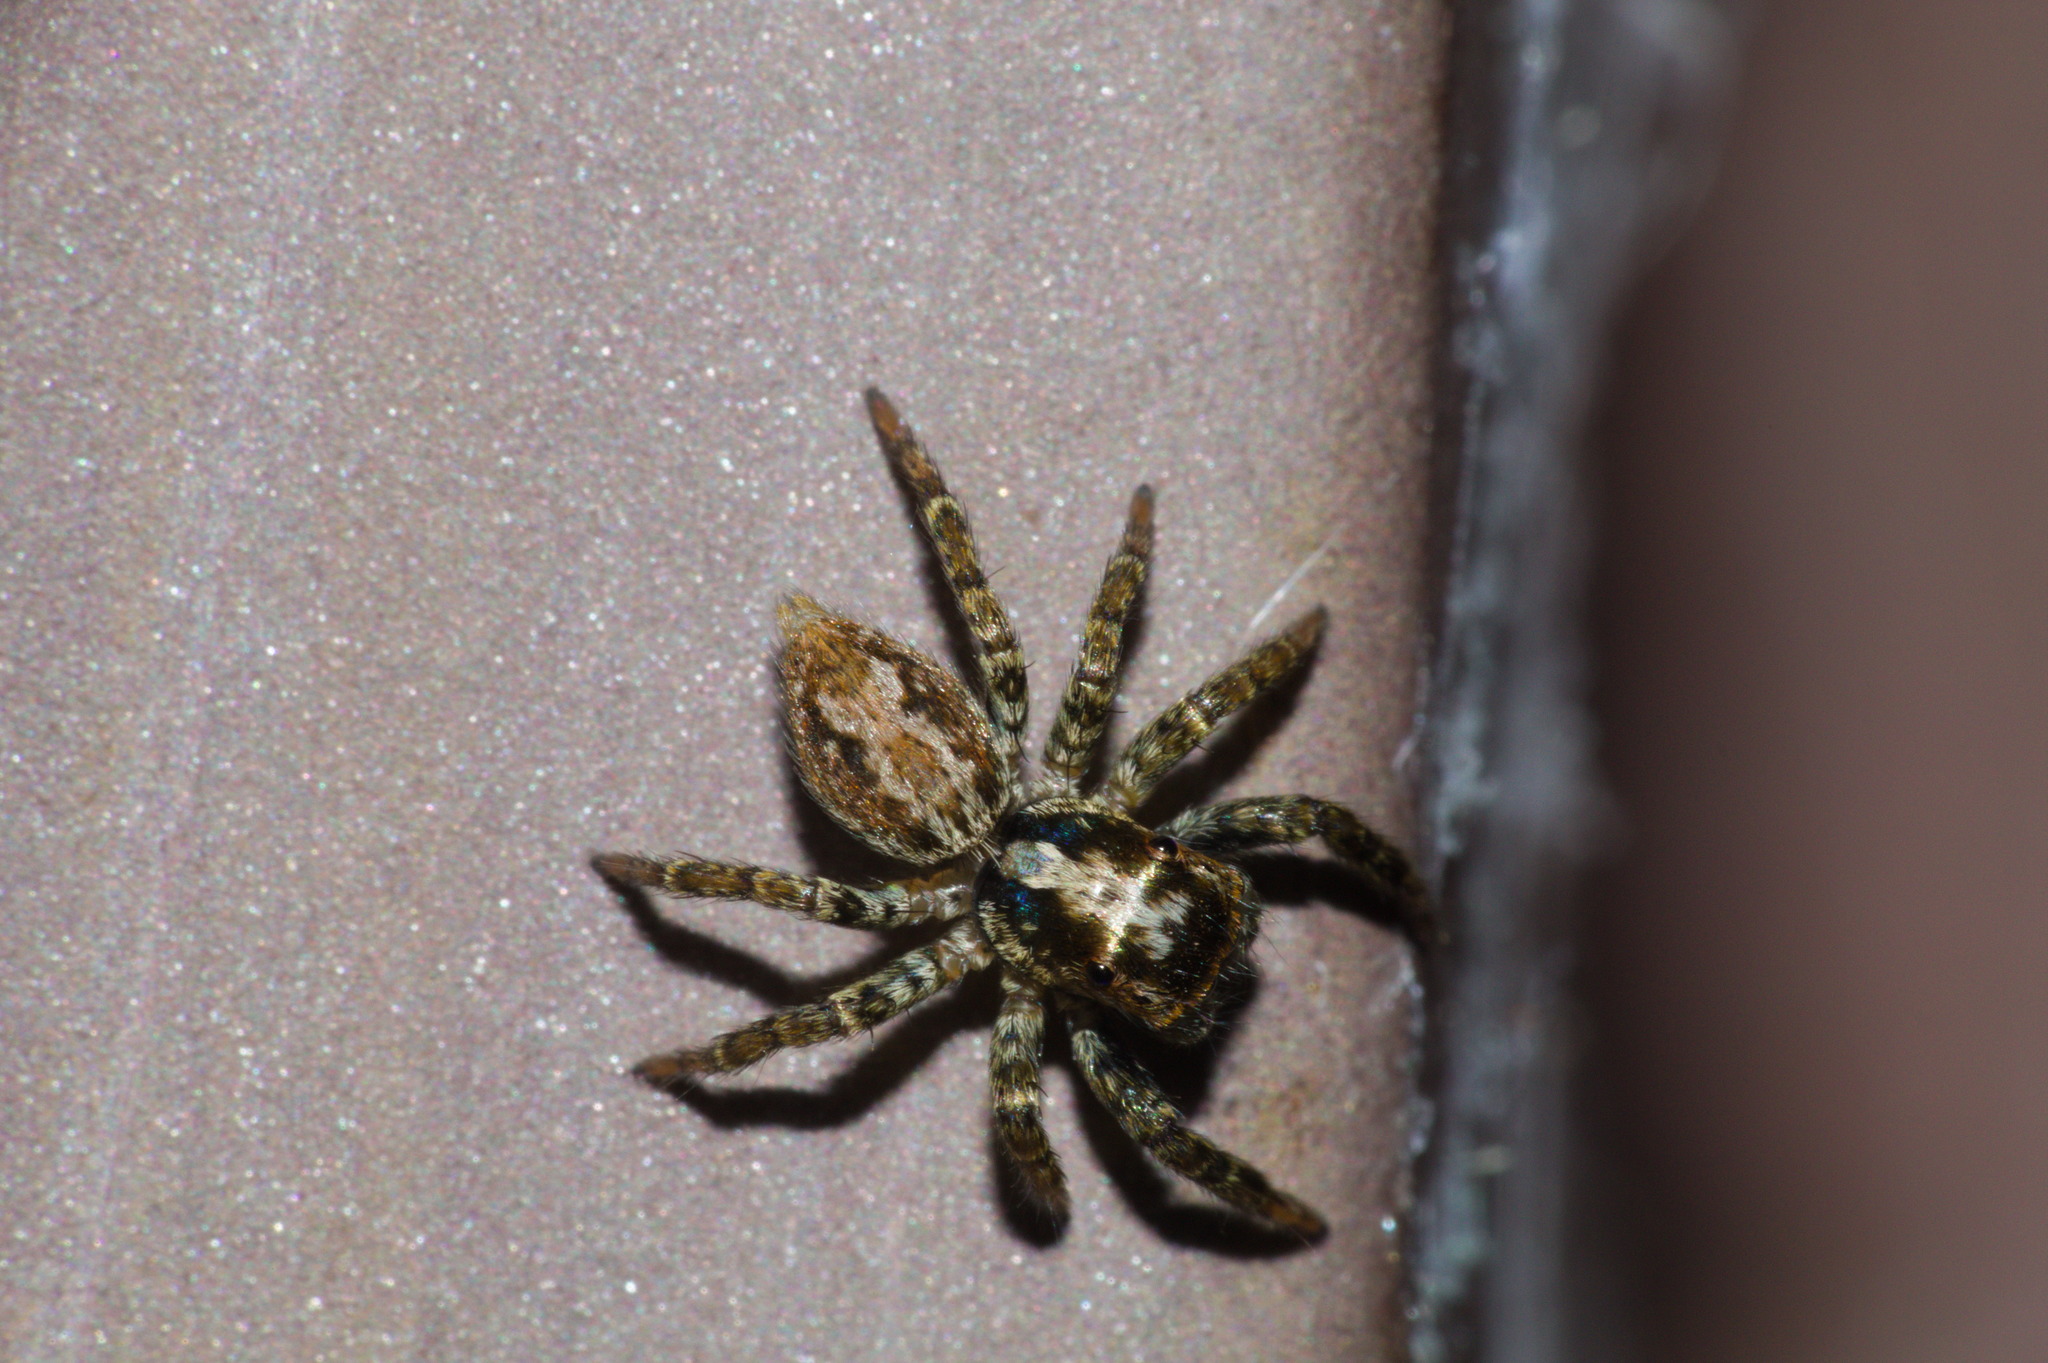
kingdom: Animalia
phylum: Arthropoda
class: Arachnida
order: Araneae
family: Salticidae
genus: Asaphobelis
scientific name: Asaphobelis physonychus
